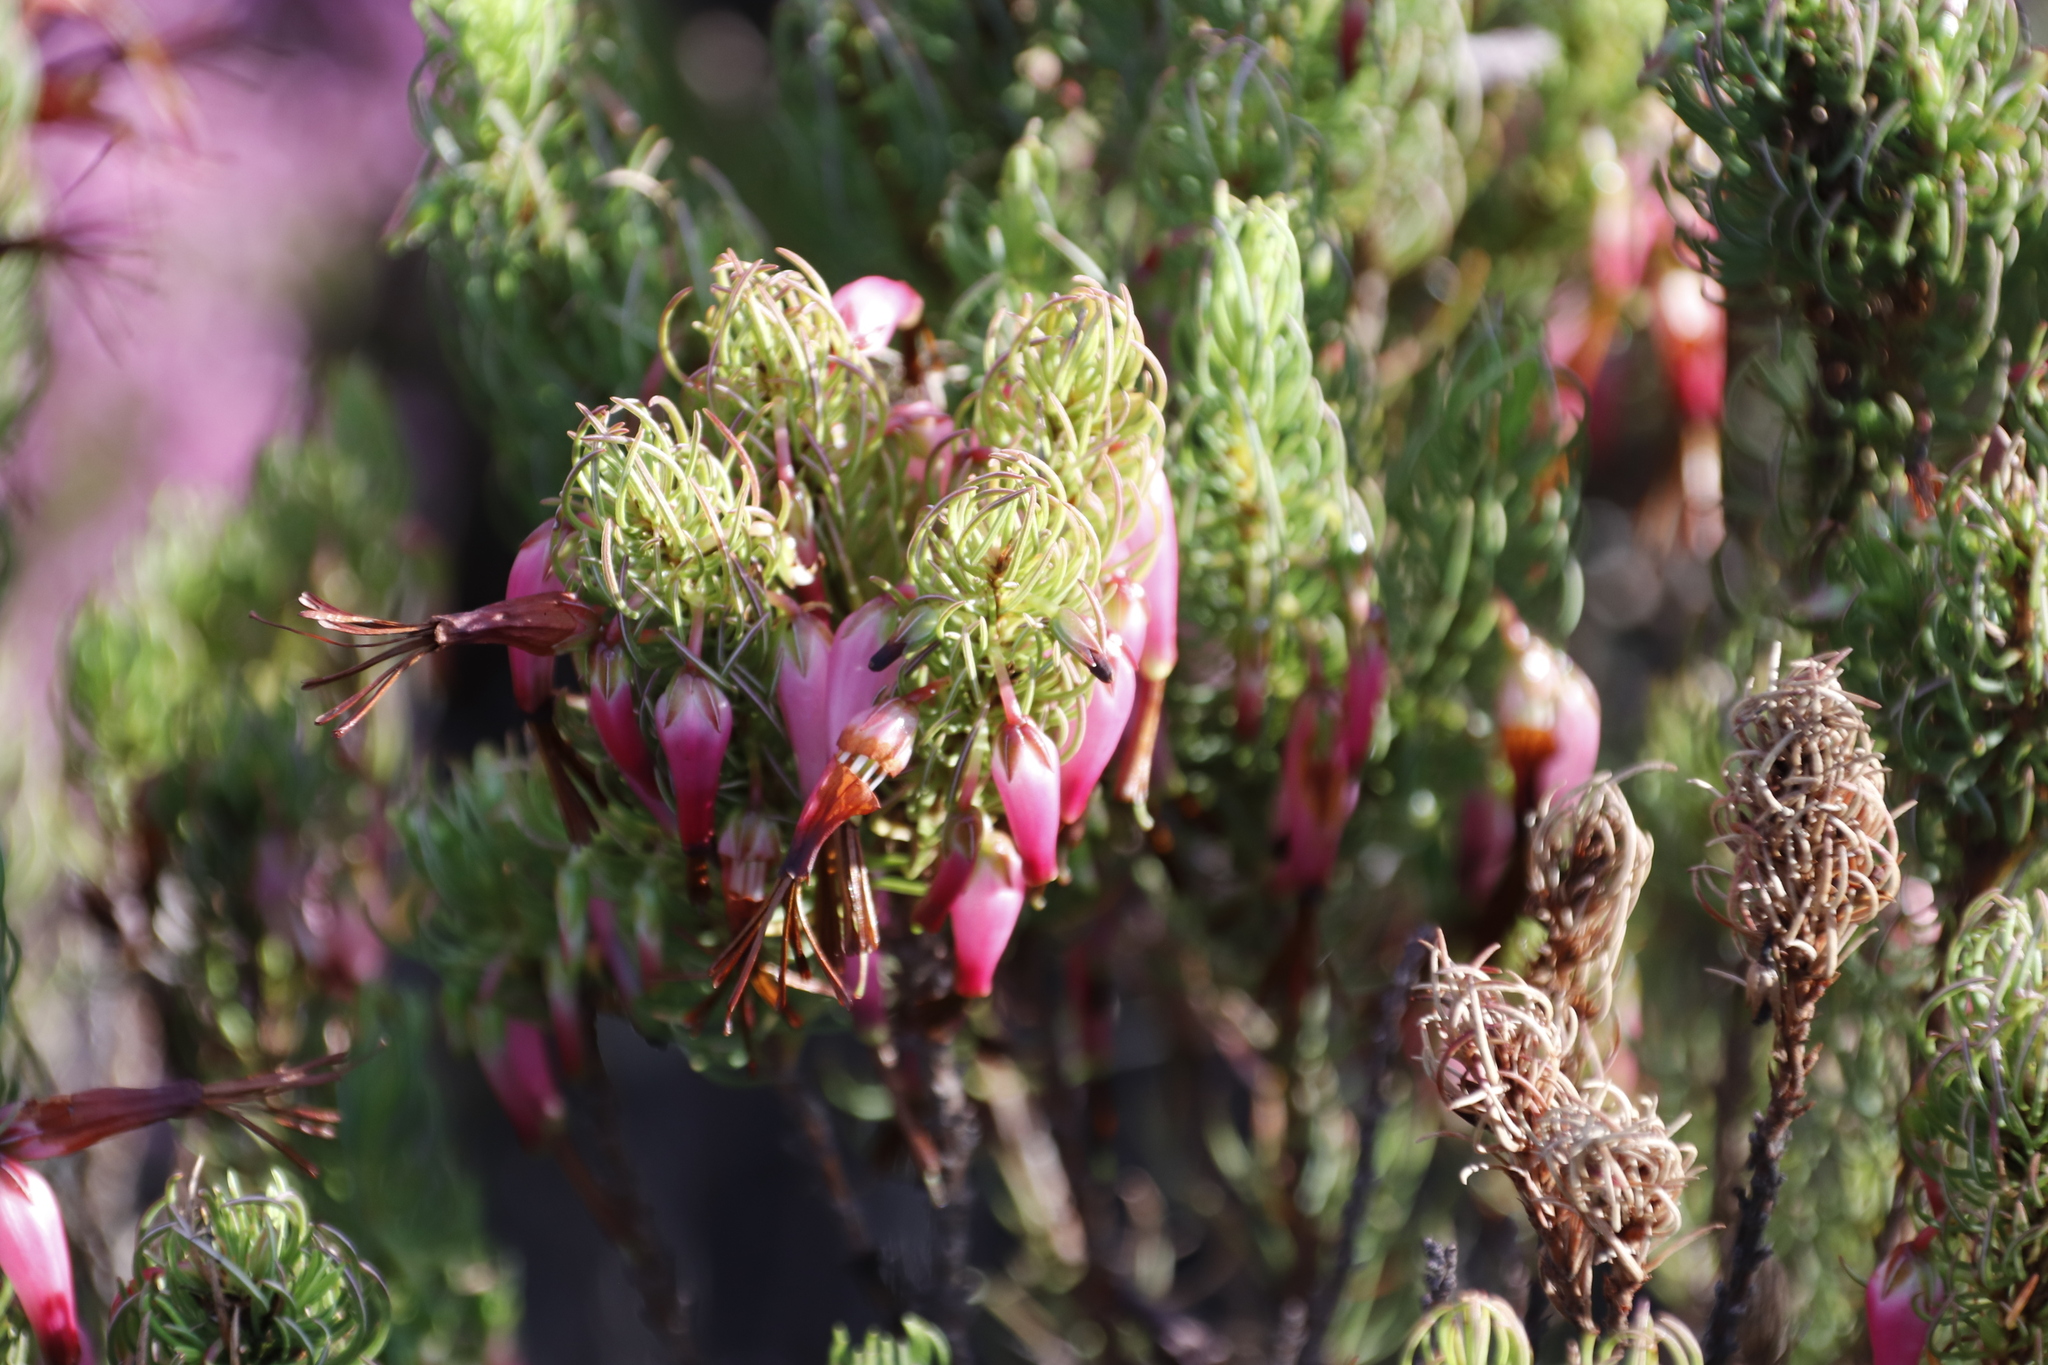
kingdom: Plantae
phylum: Tracheophyta
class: Magnoliopsida
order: Ericales
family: Ericaceae
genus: Erica
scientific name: Erica plukenetii
